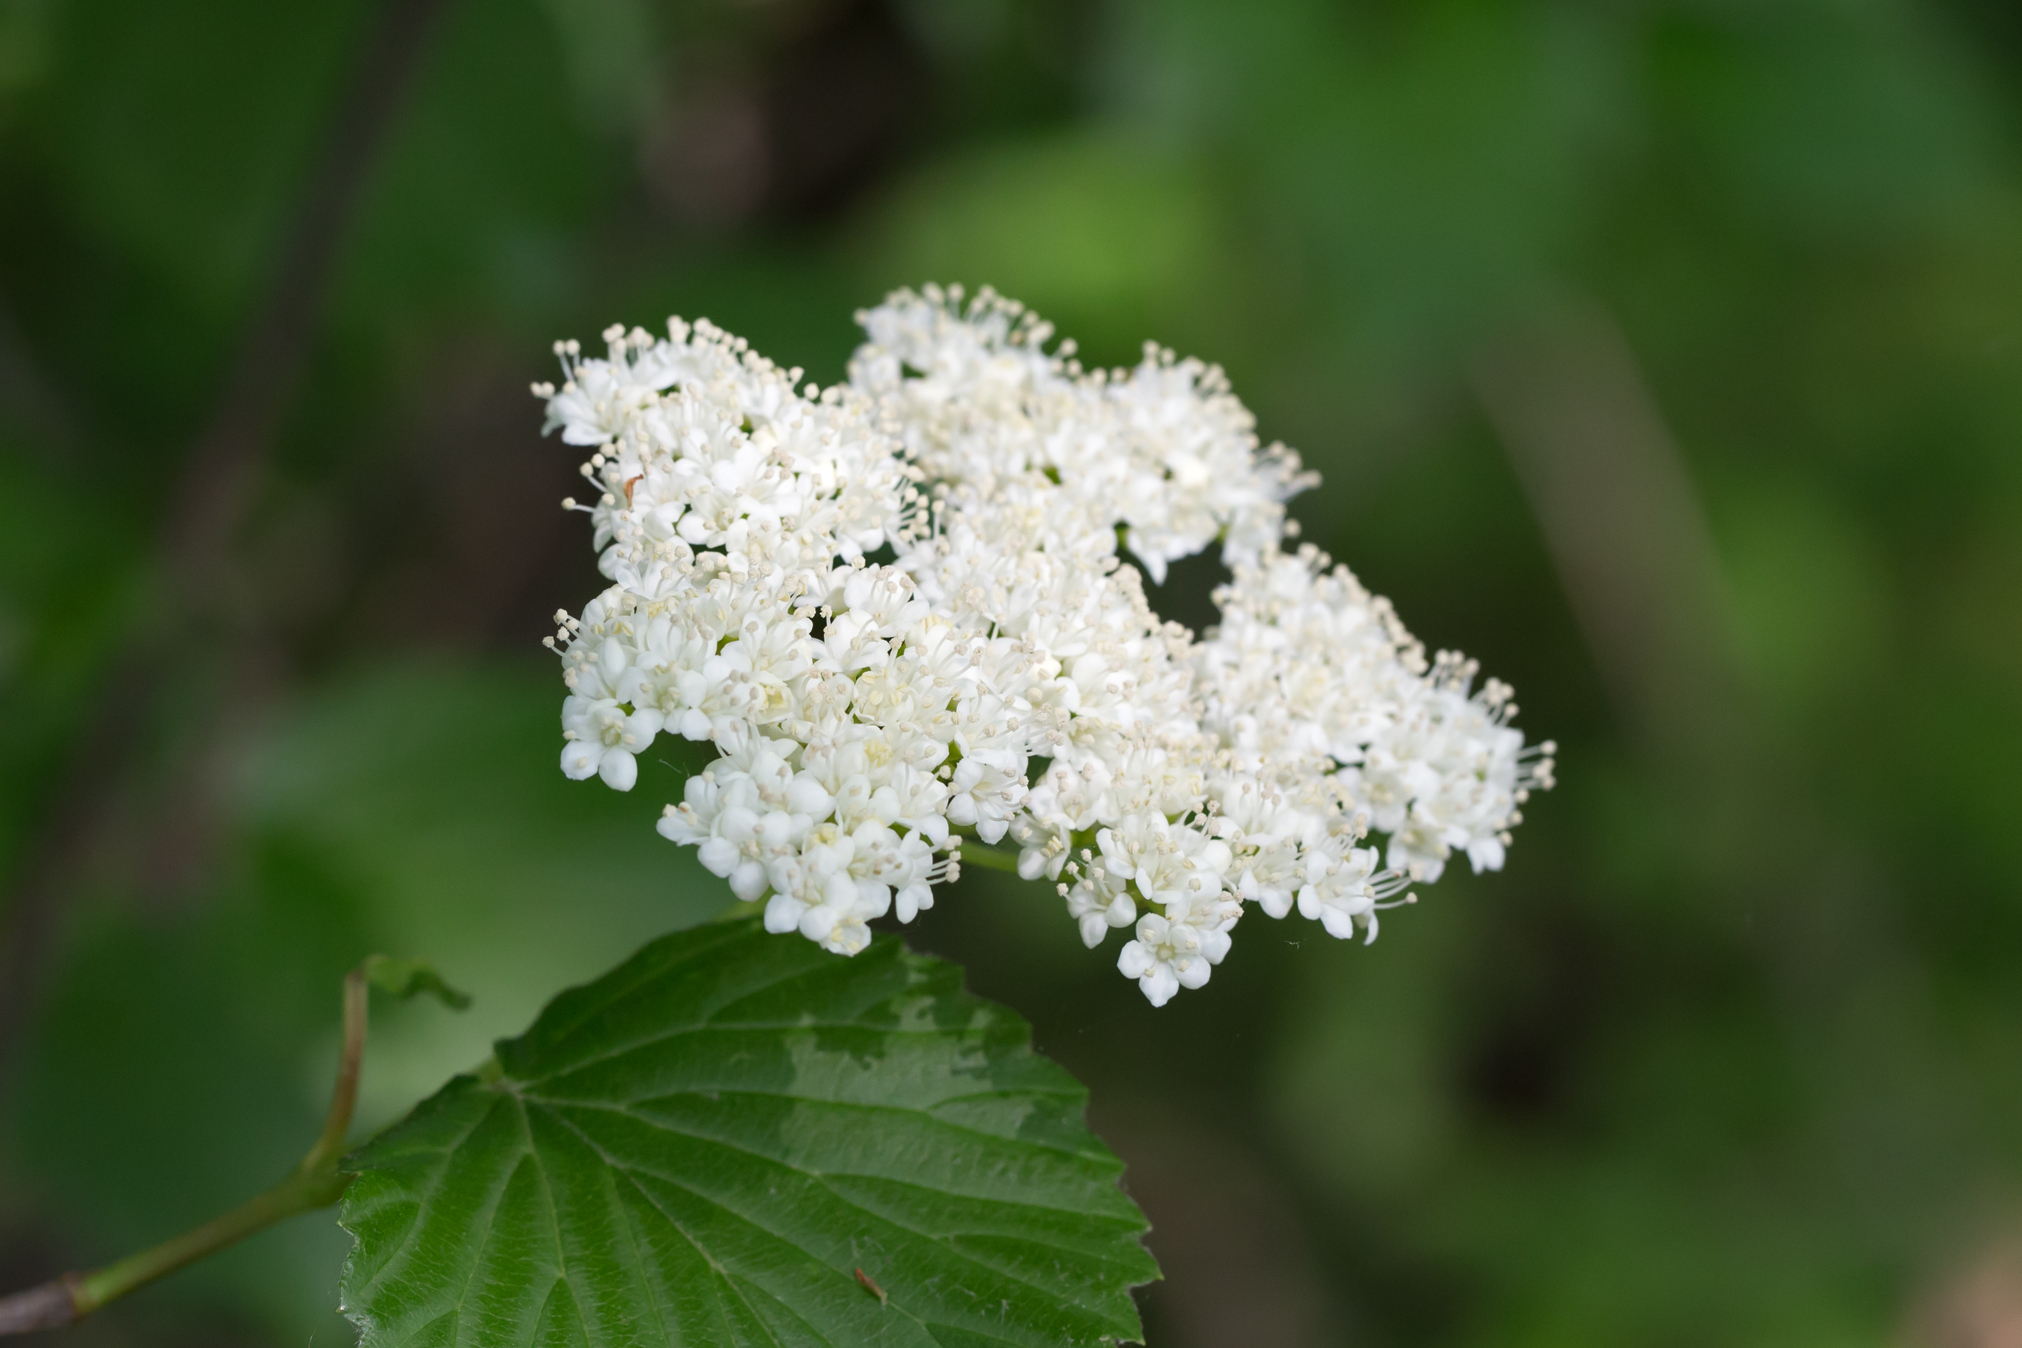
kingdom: Plantae
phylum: Tracheophyta
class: Magnoliopsida
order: Dipsacales
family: Viburnaceae
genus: Viburnum
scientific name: Viburnum recognitum
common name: Northern arrow-wood
